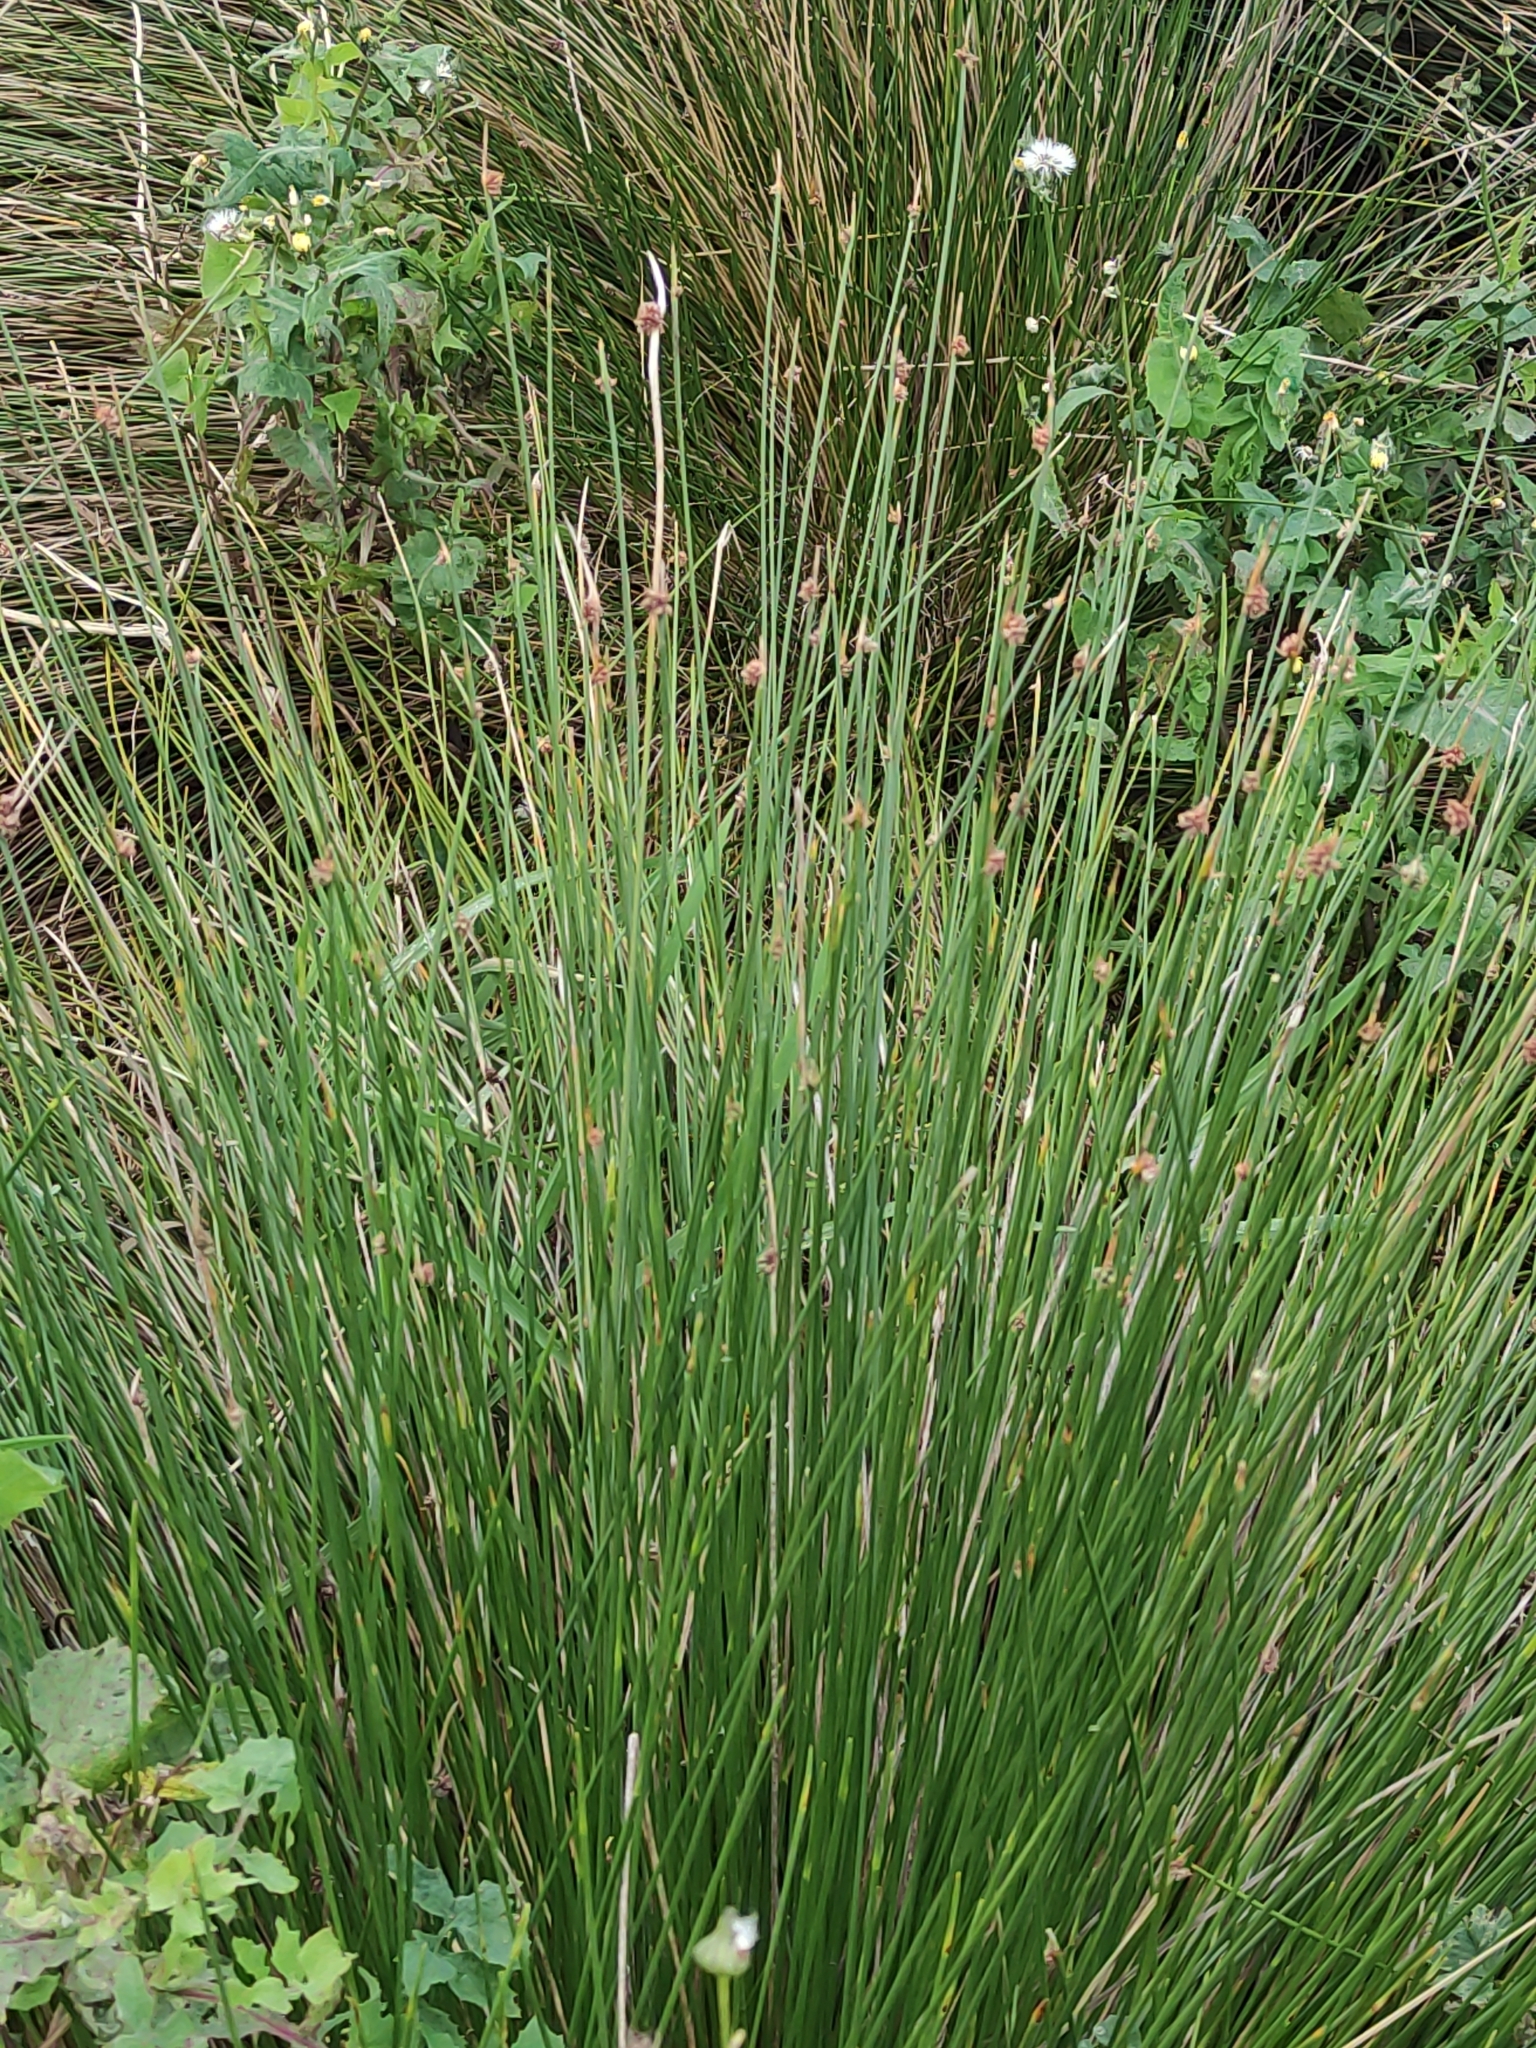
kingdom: Plantae
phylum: Tracheophyta
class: Liliopsida
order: Poales
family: Cyperaceae
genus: Ficinia
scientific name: Ficinia nodosa
